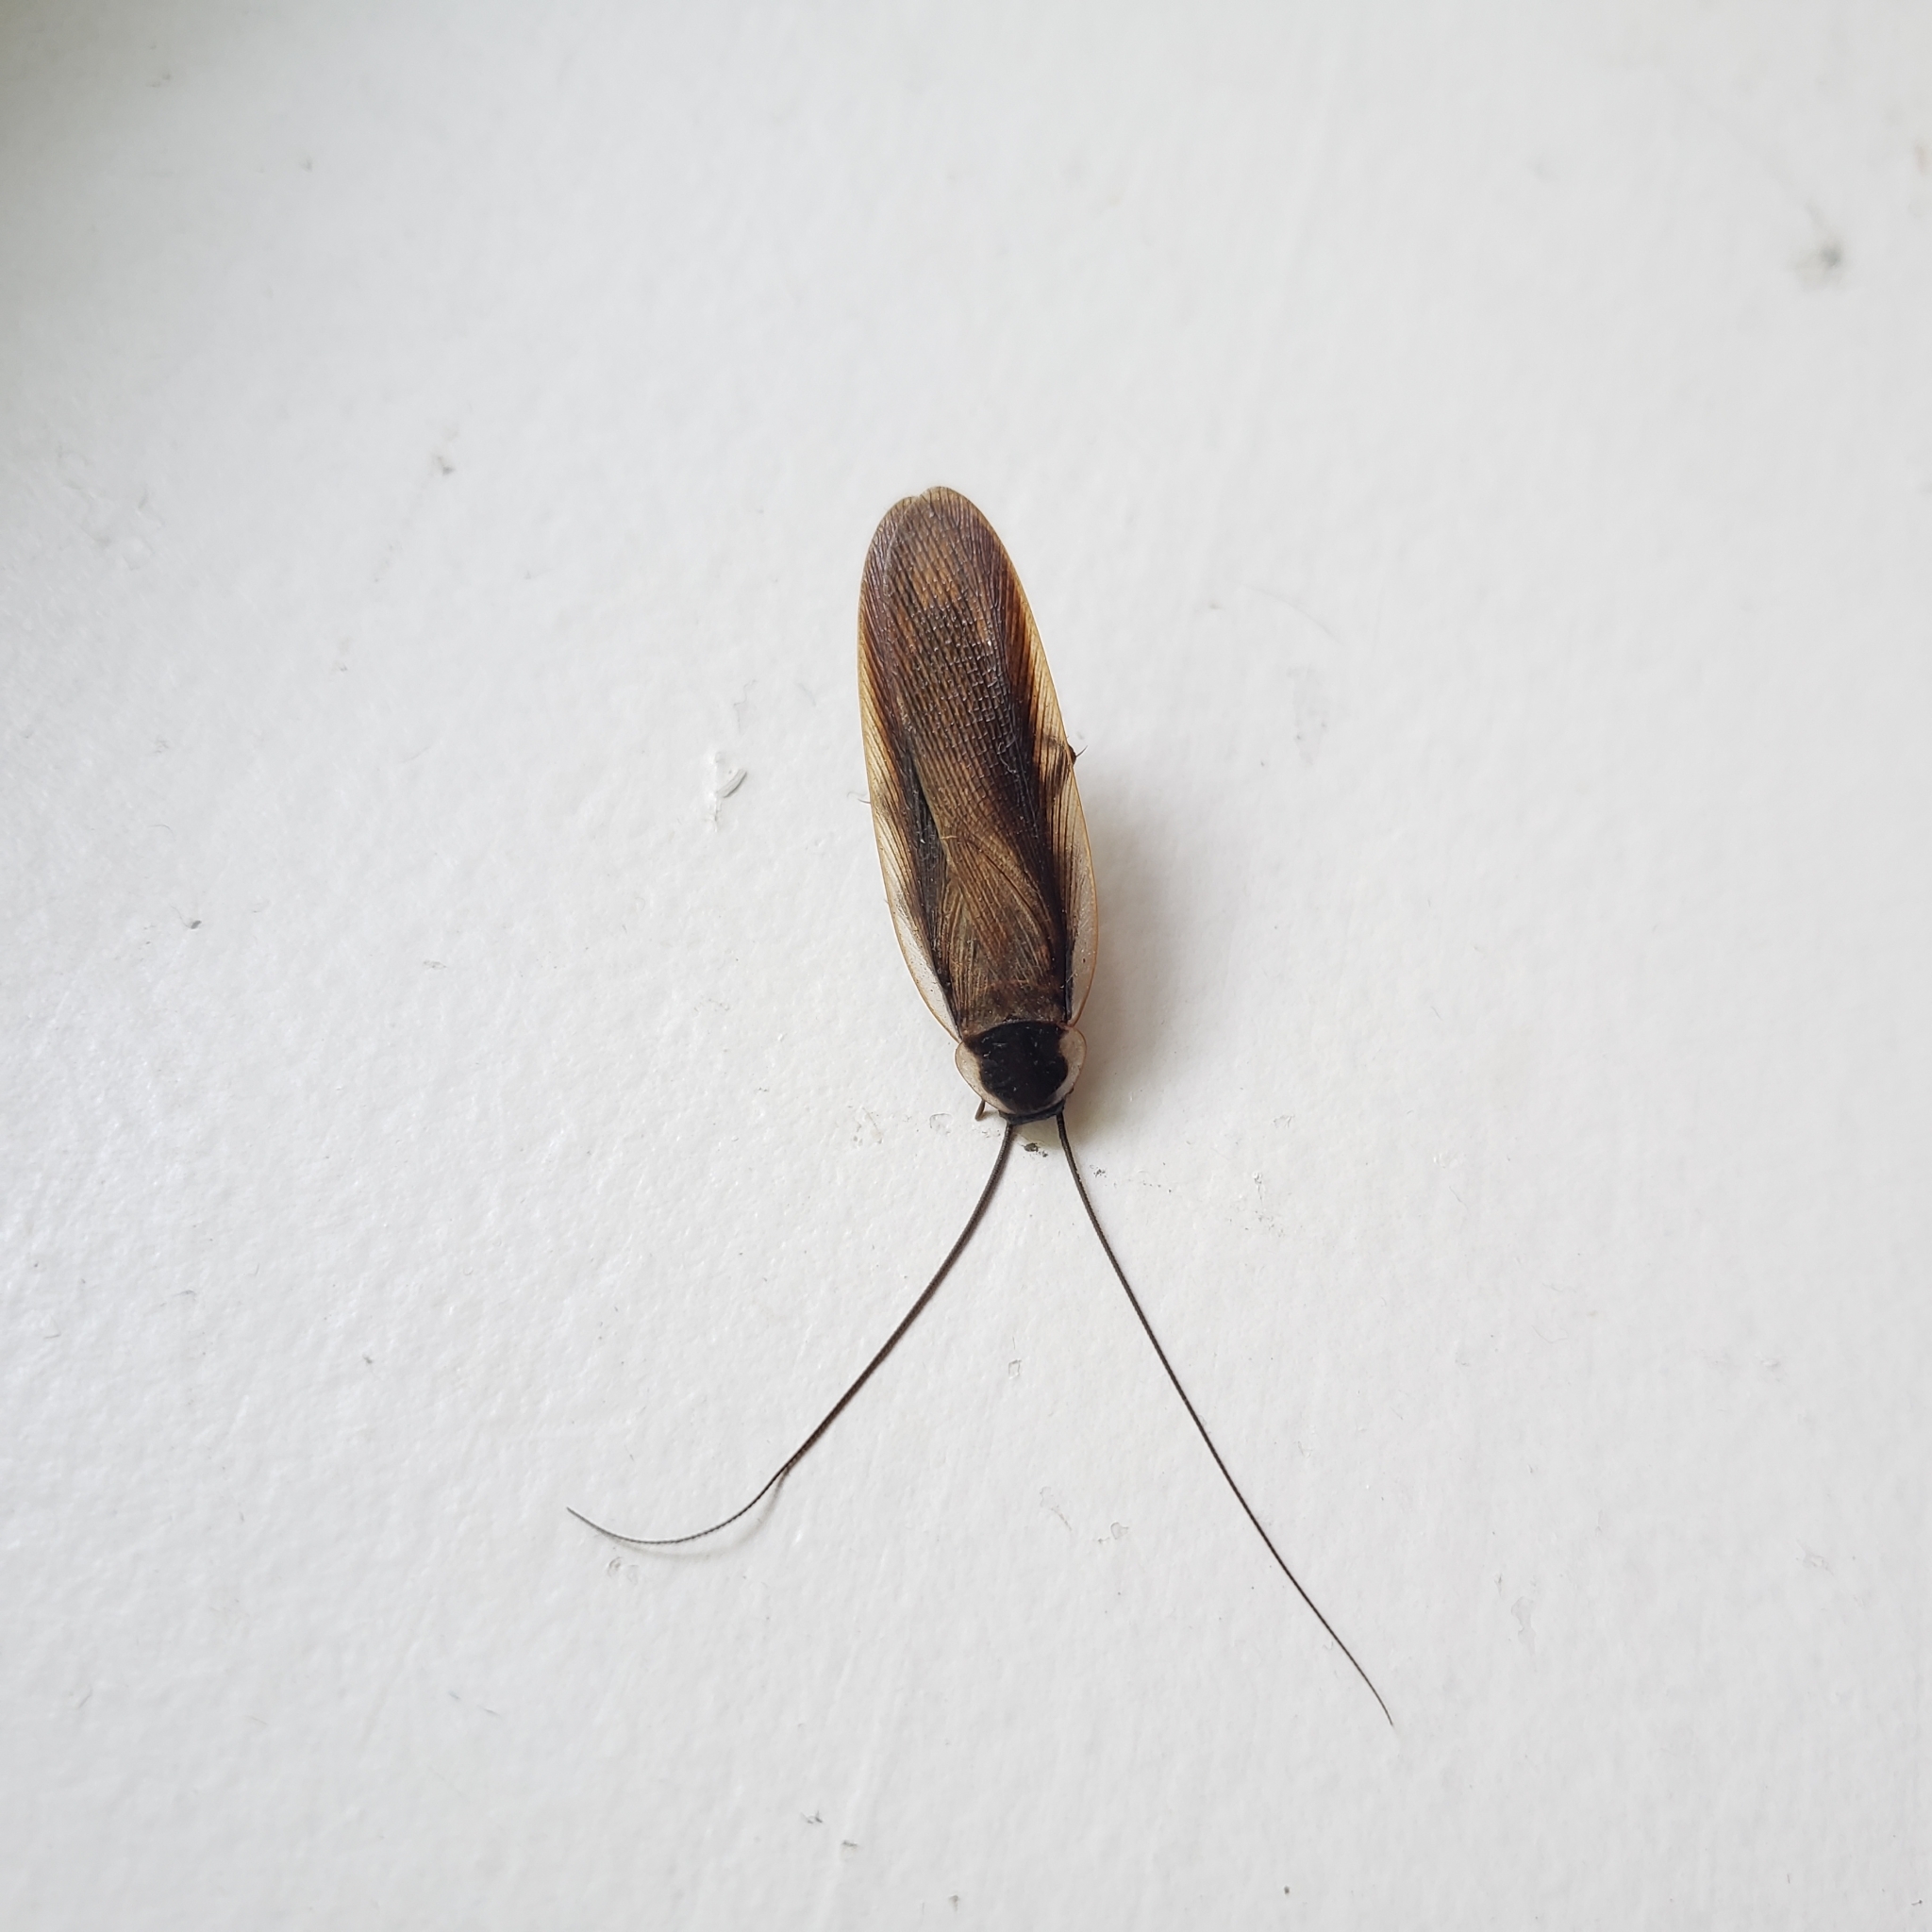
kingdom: Animalia
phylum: Arthropoda
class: Insecta
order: Blattodea
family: Ectobiidae
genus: Parcoblatta
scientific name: Parcoblatta pennsylvanica
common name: Pennsylvanian wood cockroach
